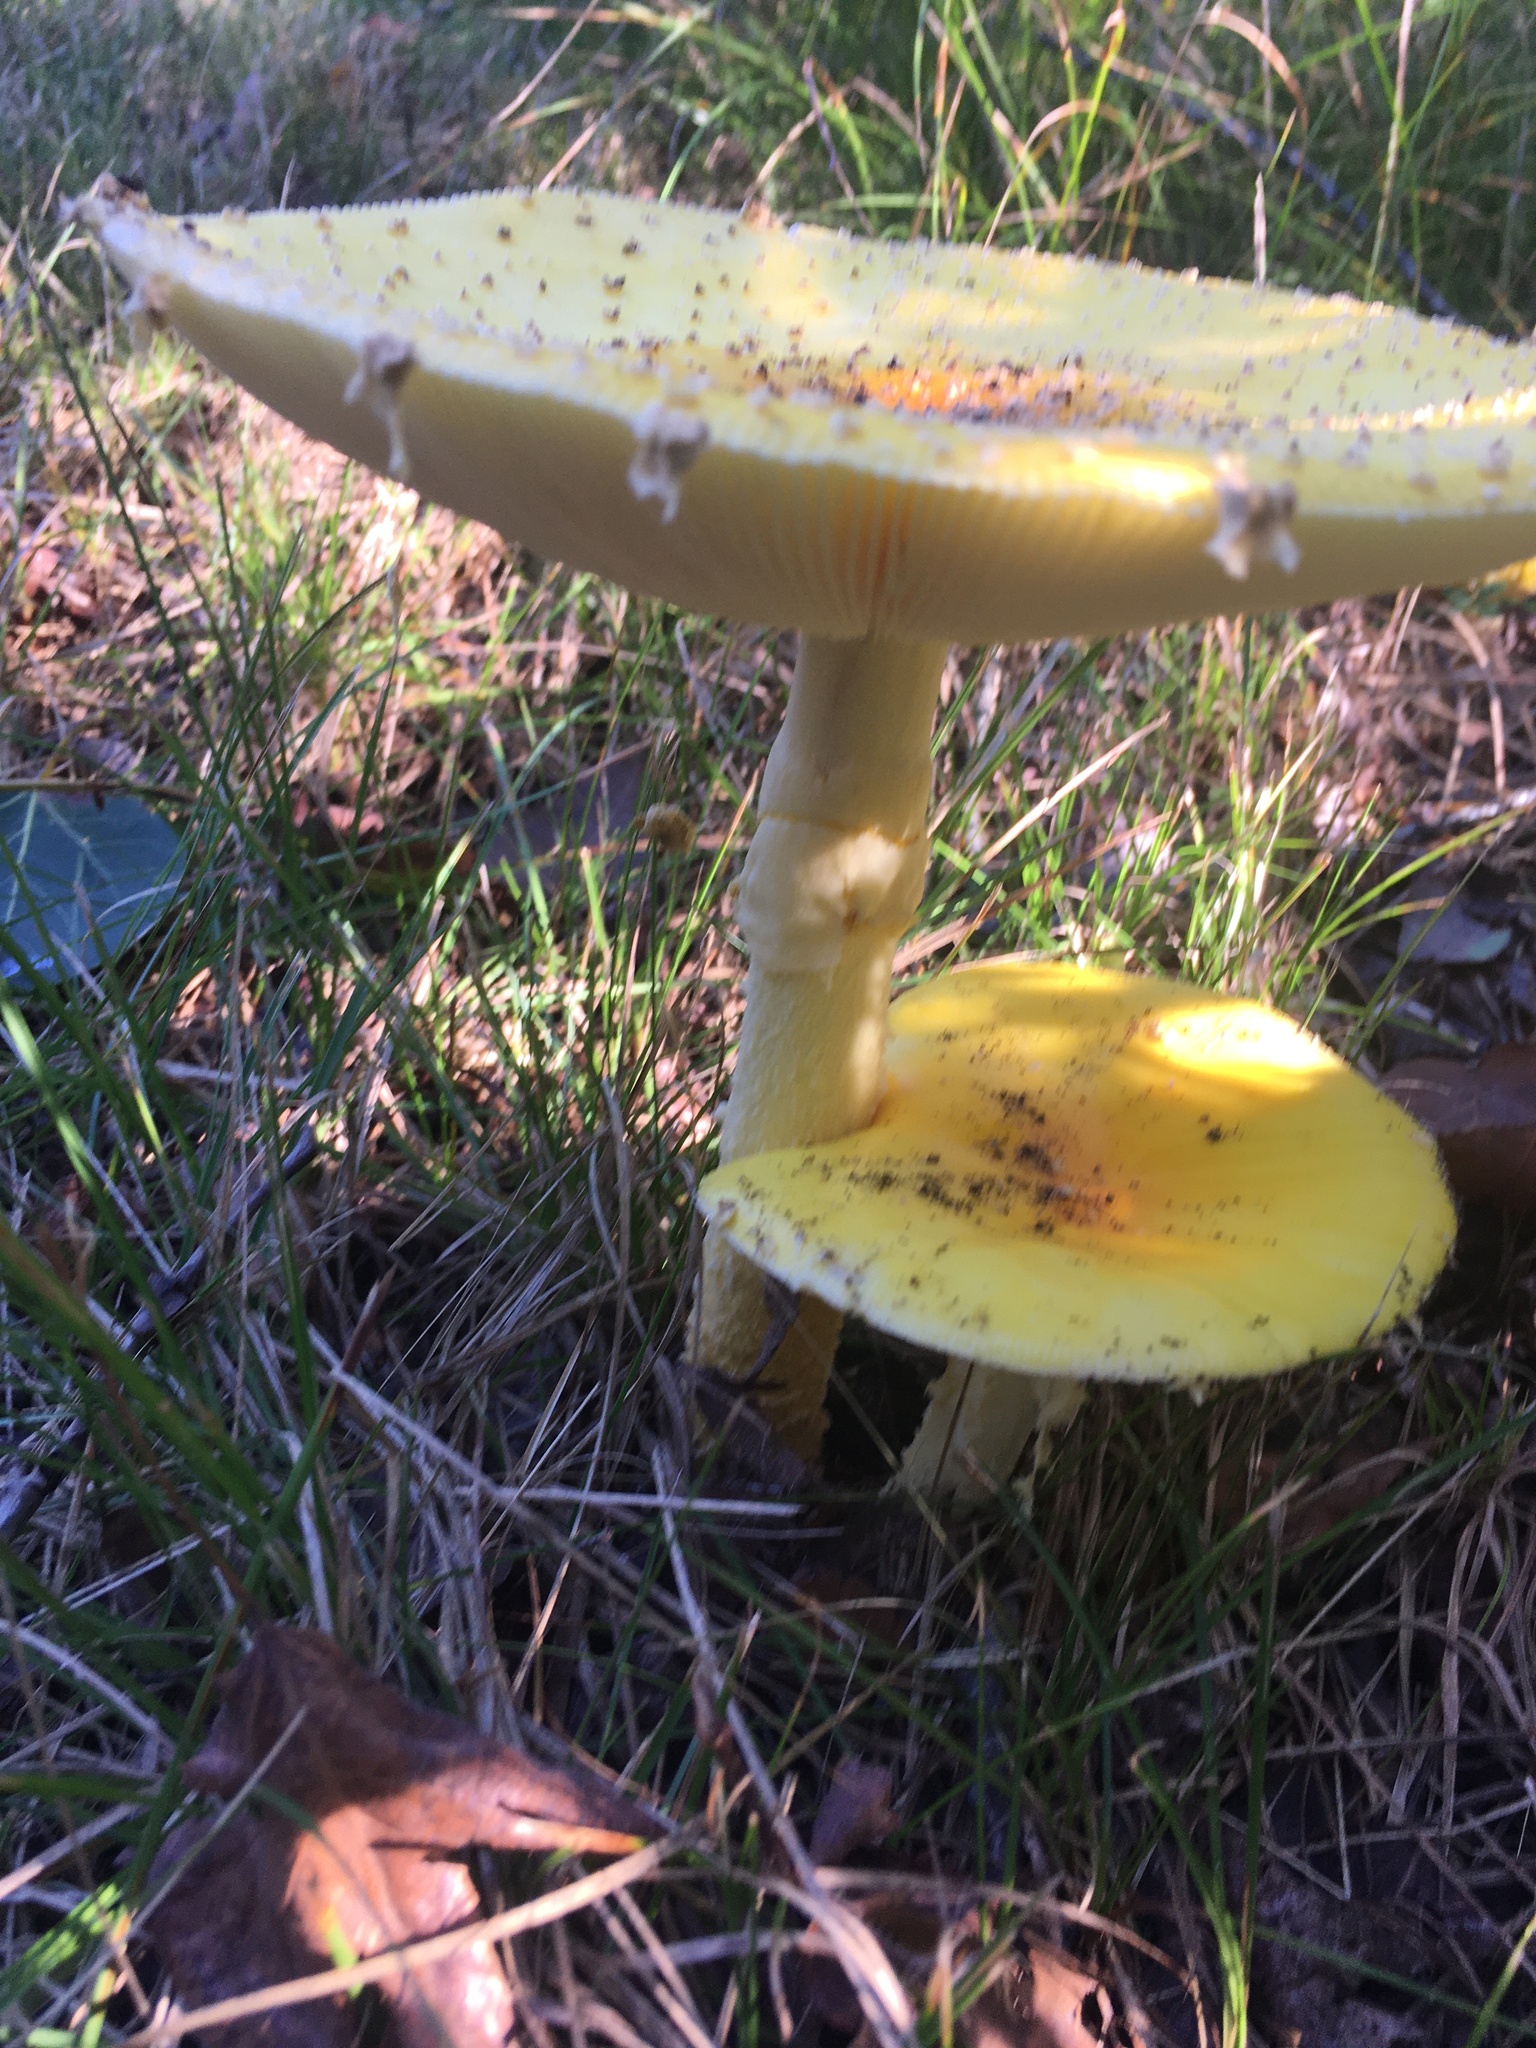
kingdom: Fungi
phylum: Basidiomycota
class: Agaricomycetes
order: Agaricales
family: Amanitaceae
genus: Amanita
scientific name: Amanita muscaria
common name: Fly agaric
